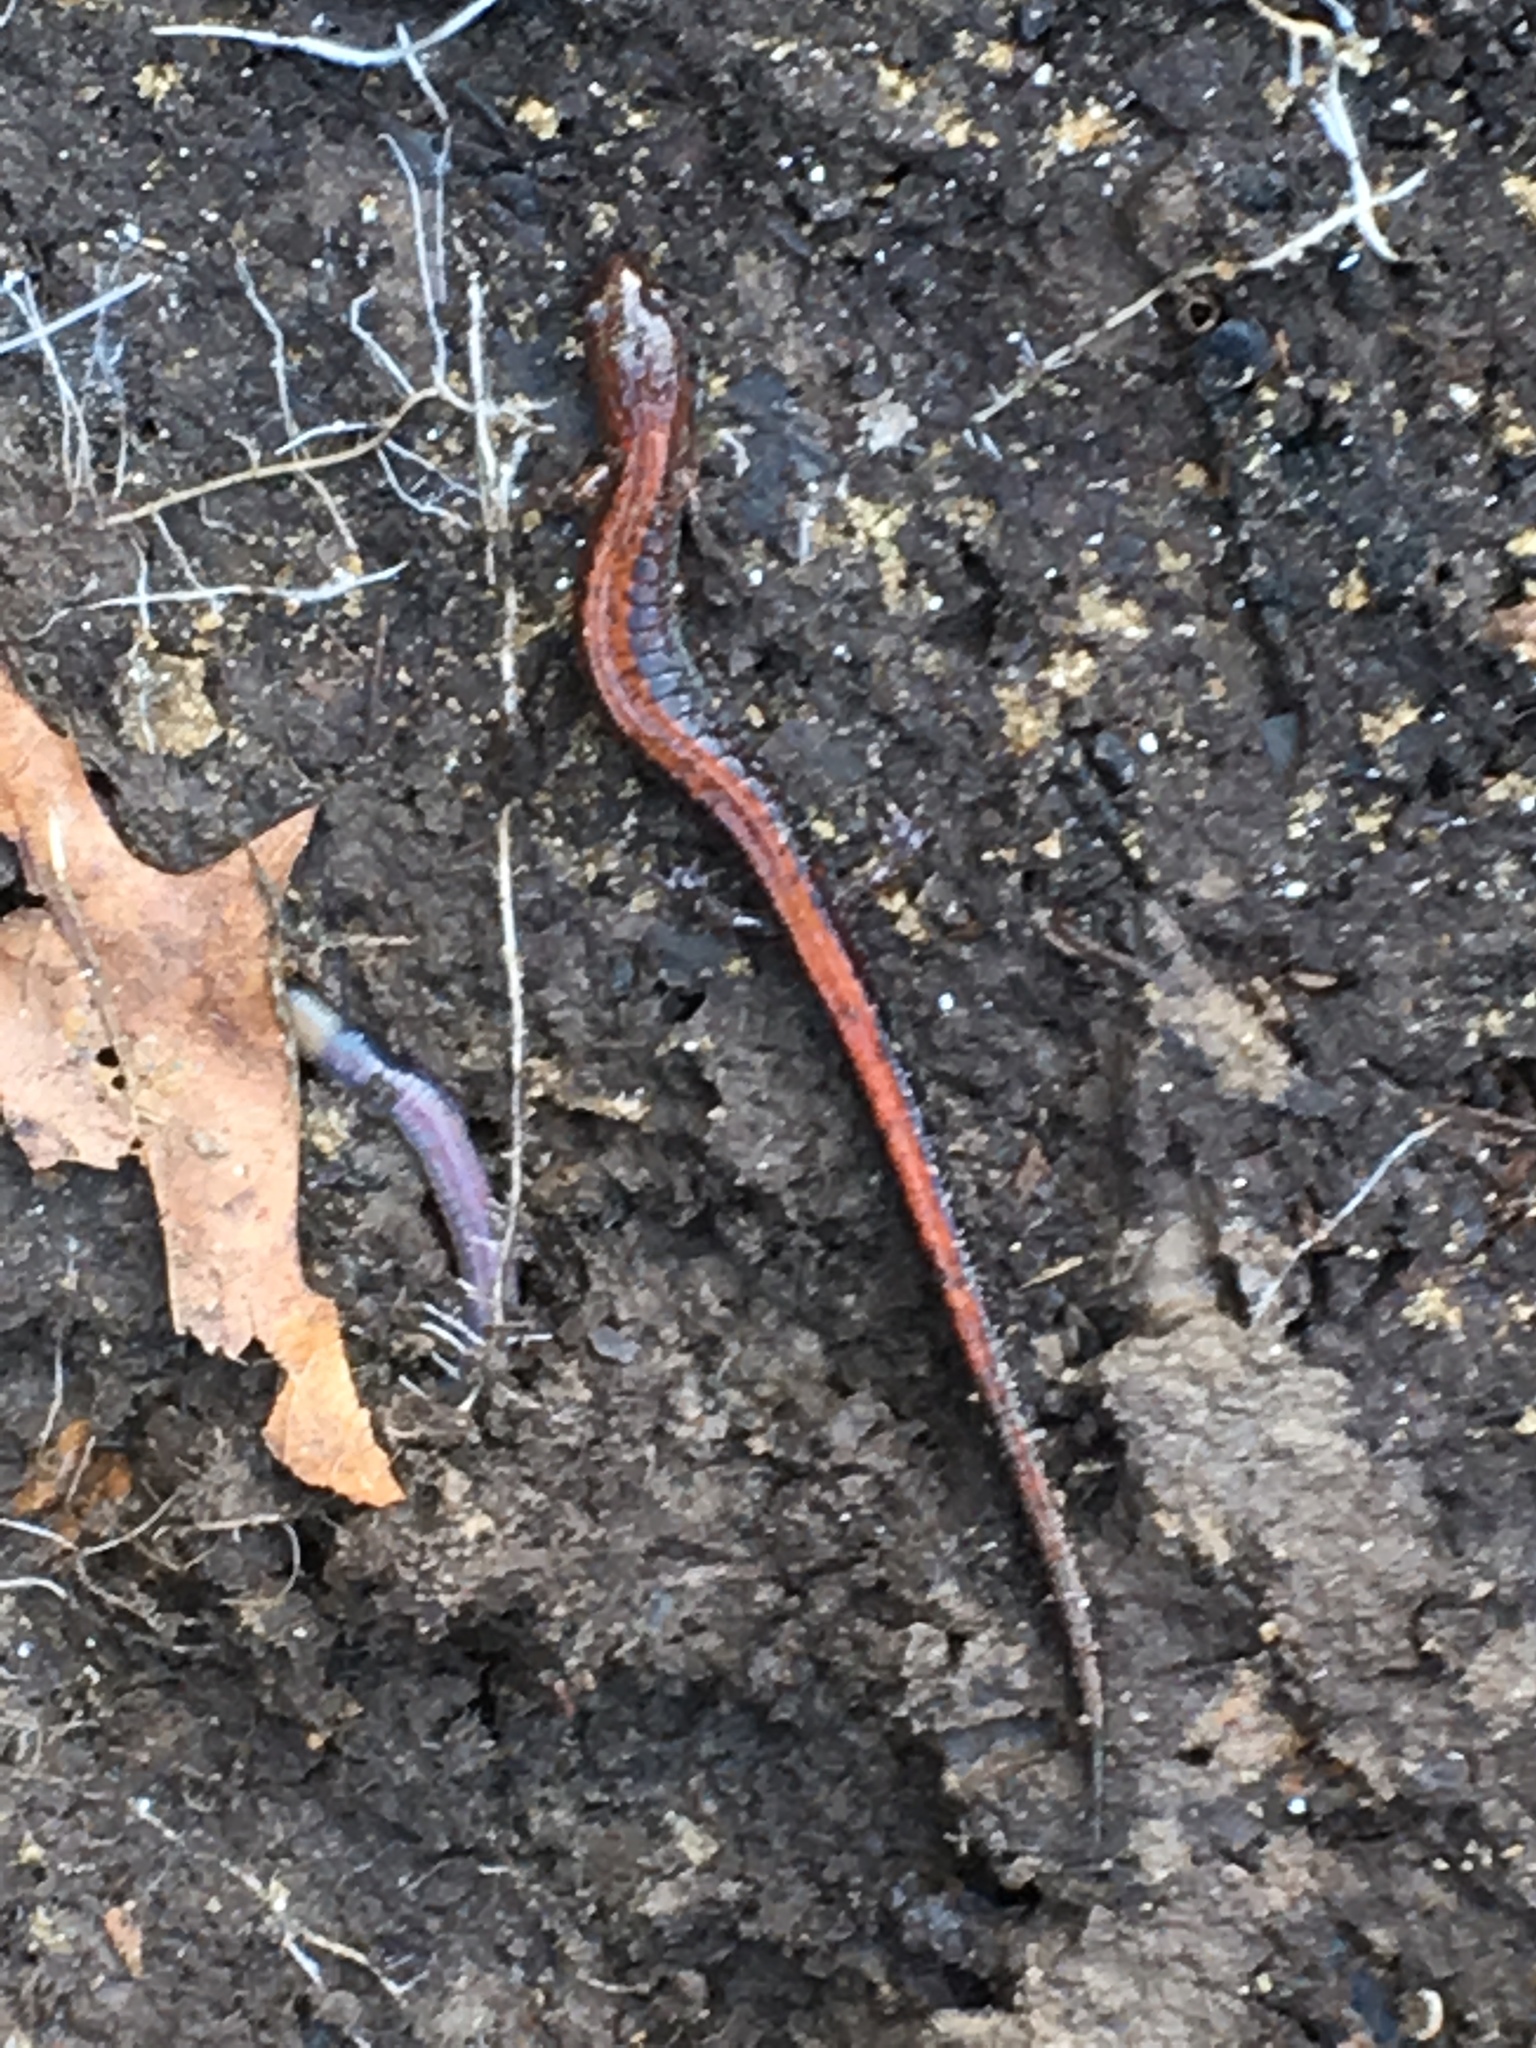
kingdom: Animalia
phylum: Chordata
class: Amphibia
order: Caudata
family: Plethodontidae
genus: Plethodon
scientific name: Plethodon cinereus
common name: Redback salamander
